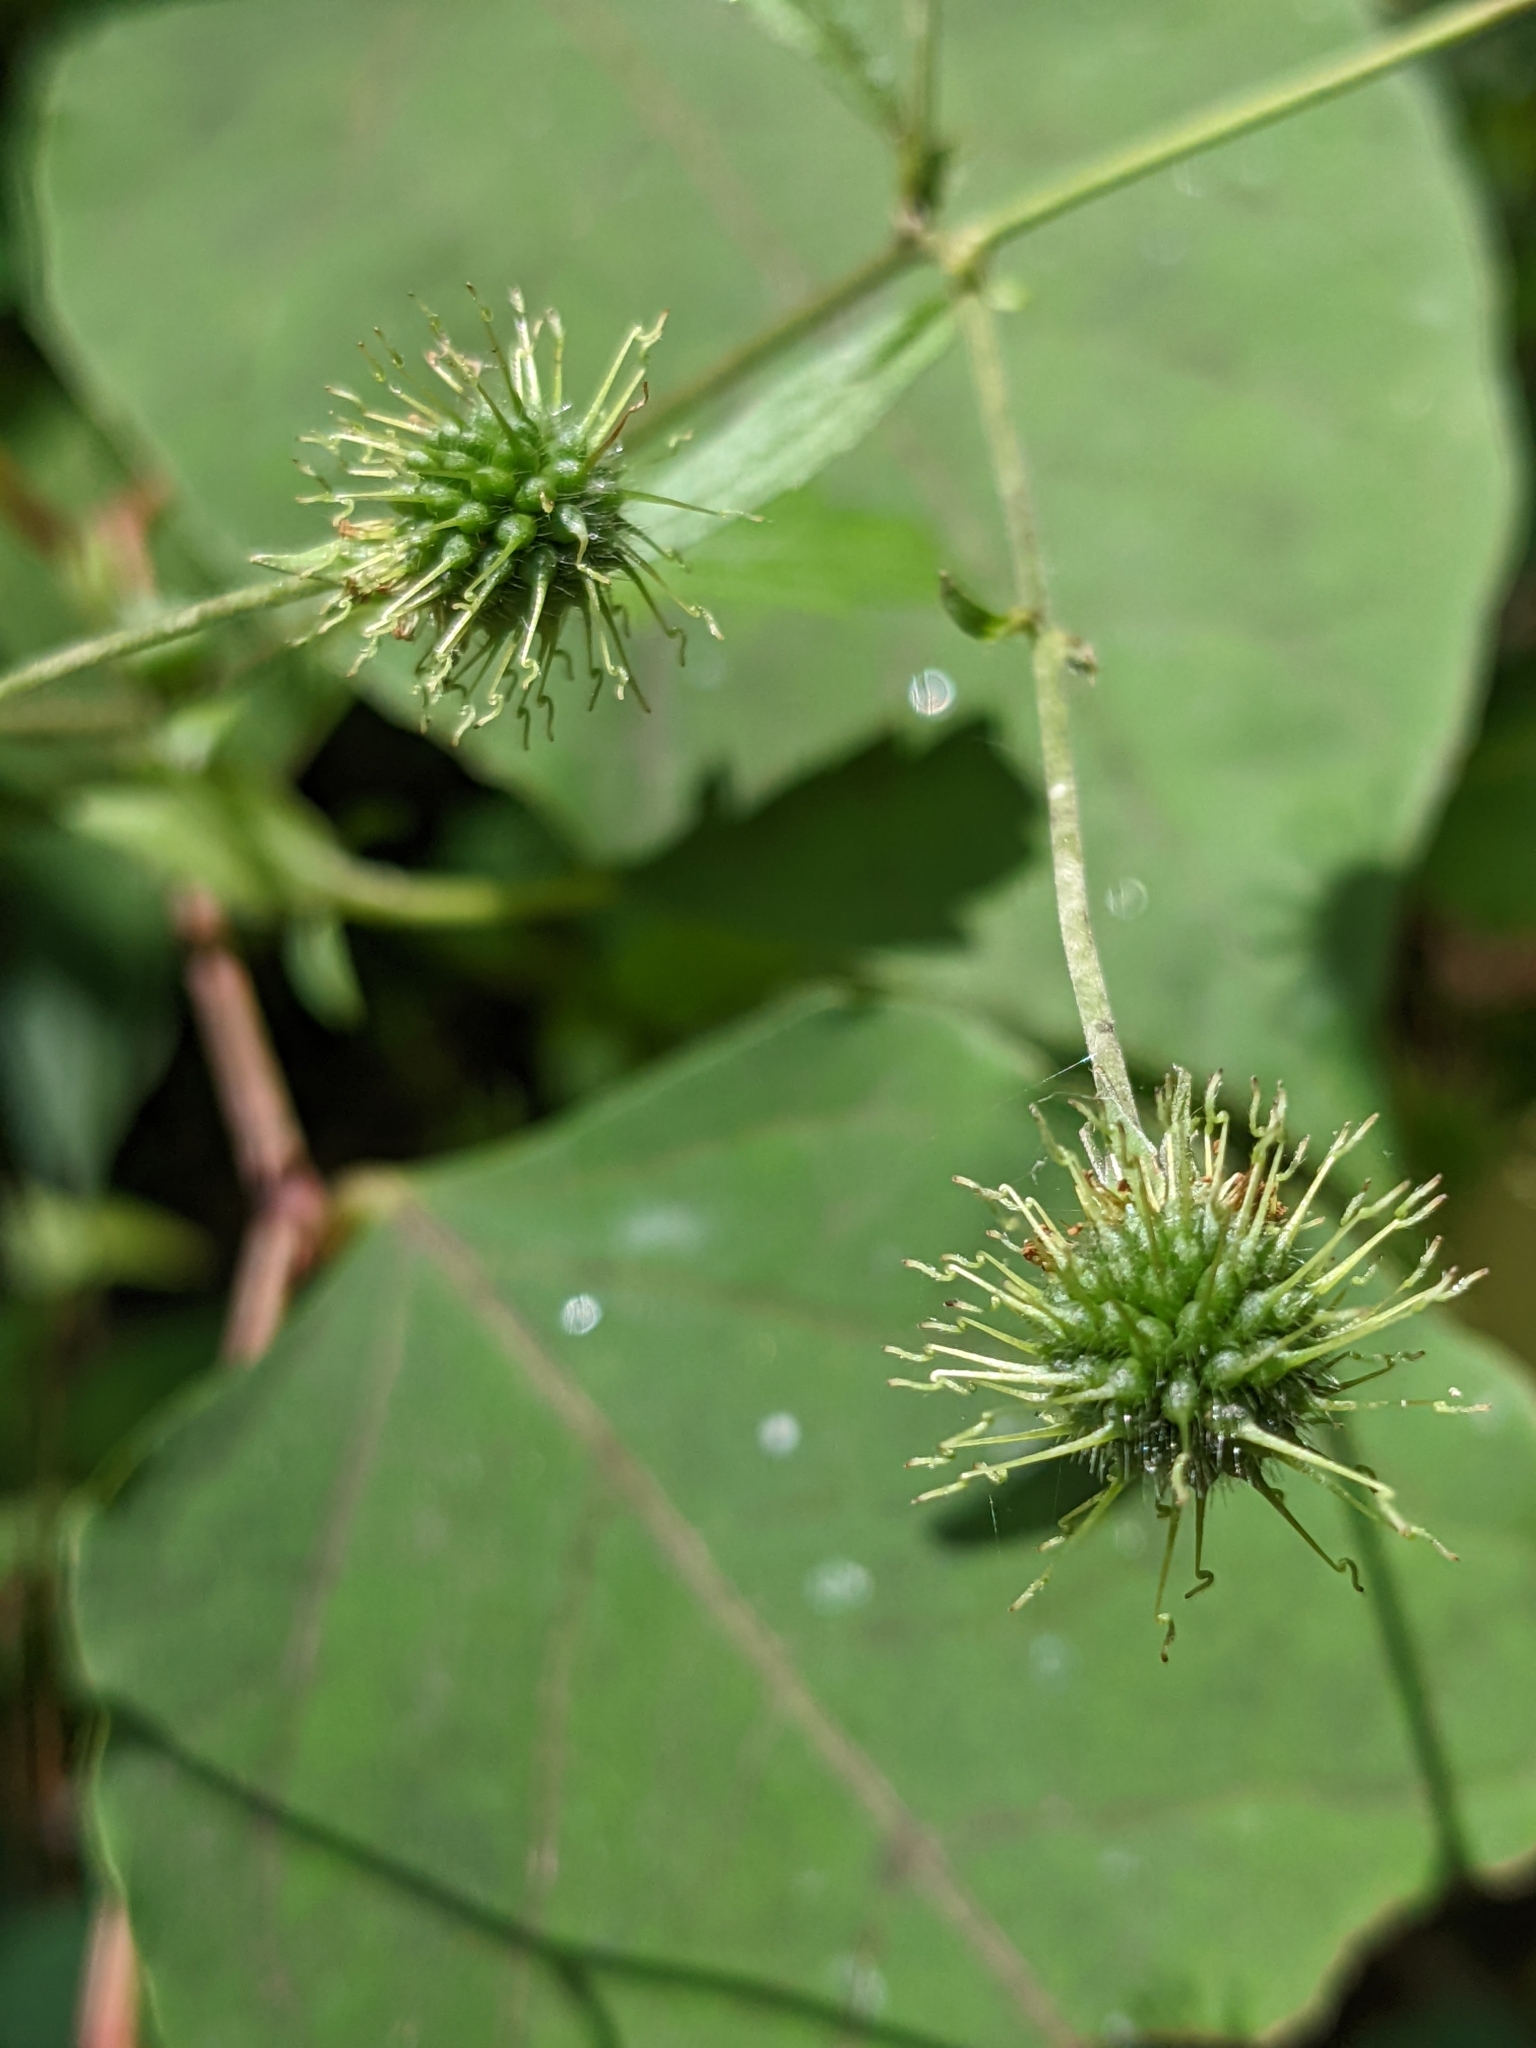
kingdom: Plantae
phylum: Tracheophyta
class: Magnoliopsida
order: Rosales
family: Rosaceae
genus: Geum
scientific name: Geum canadense
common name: White avens
